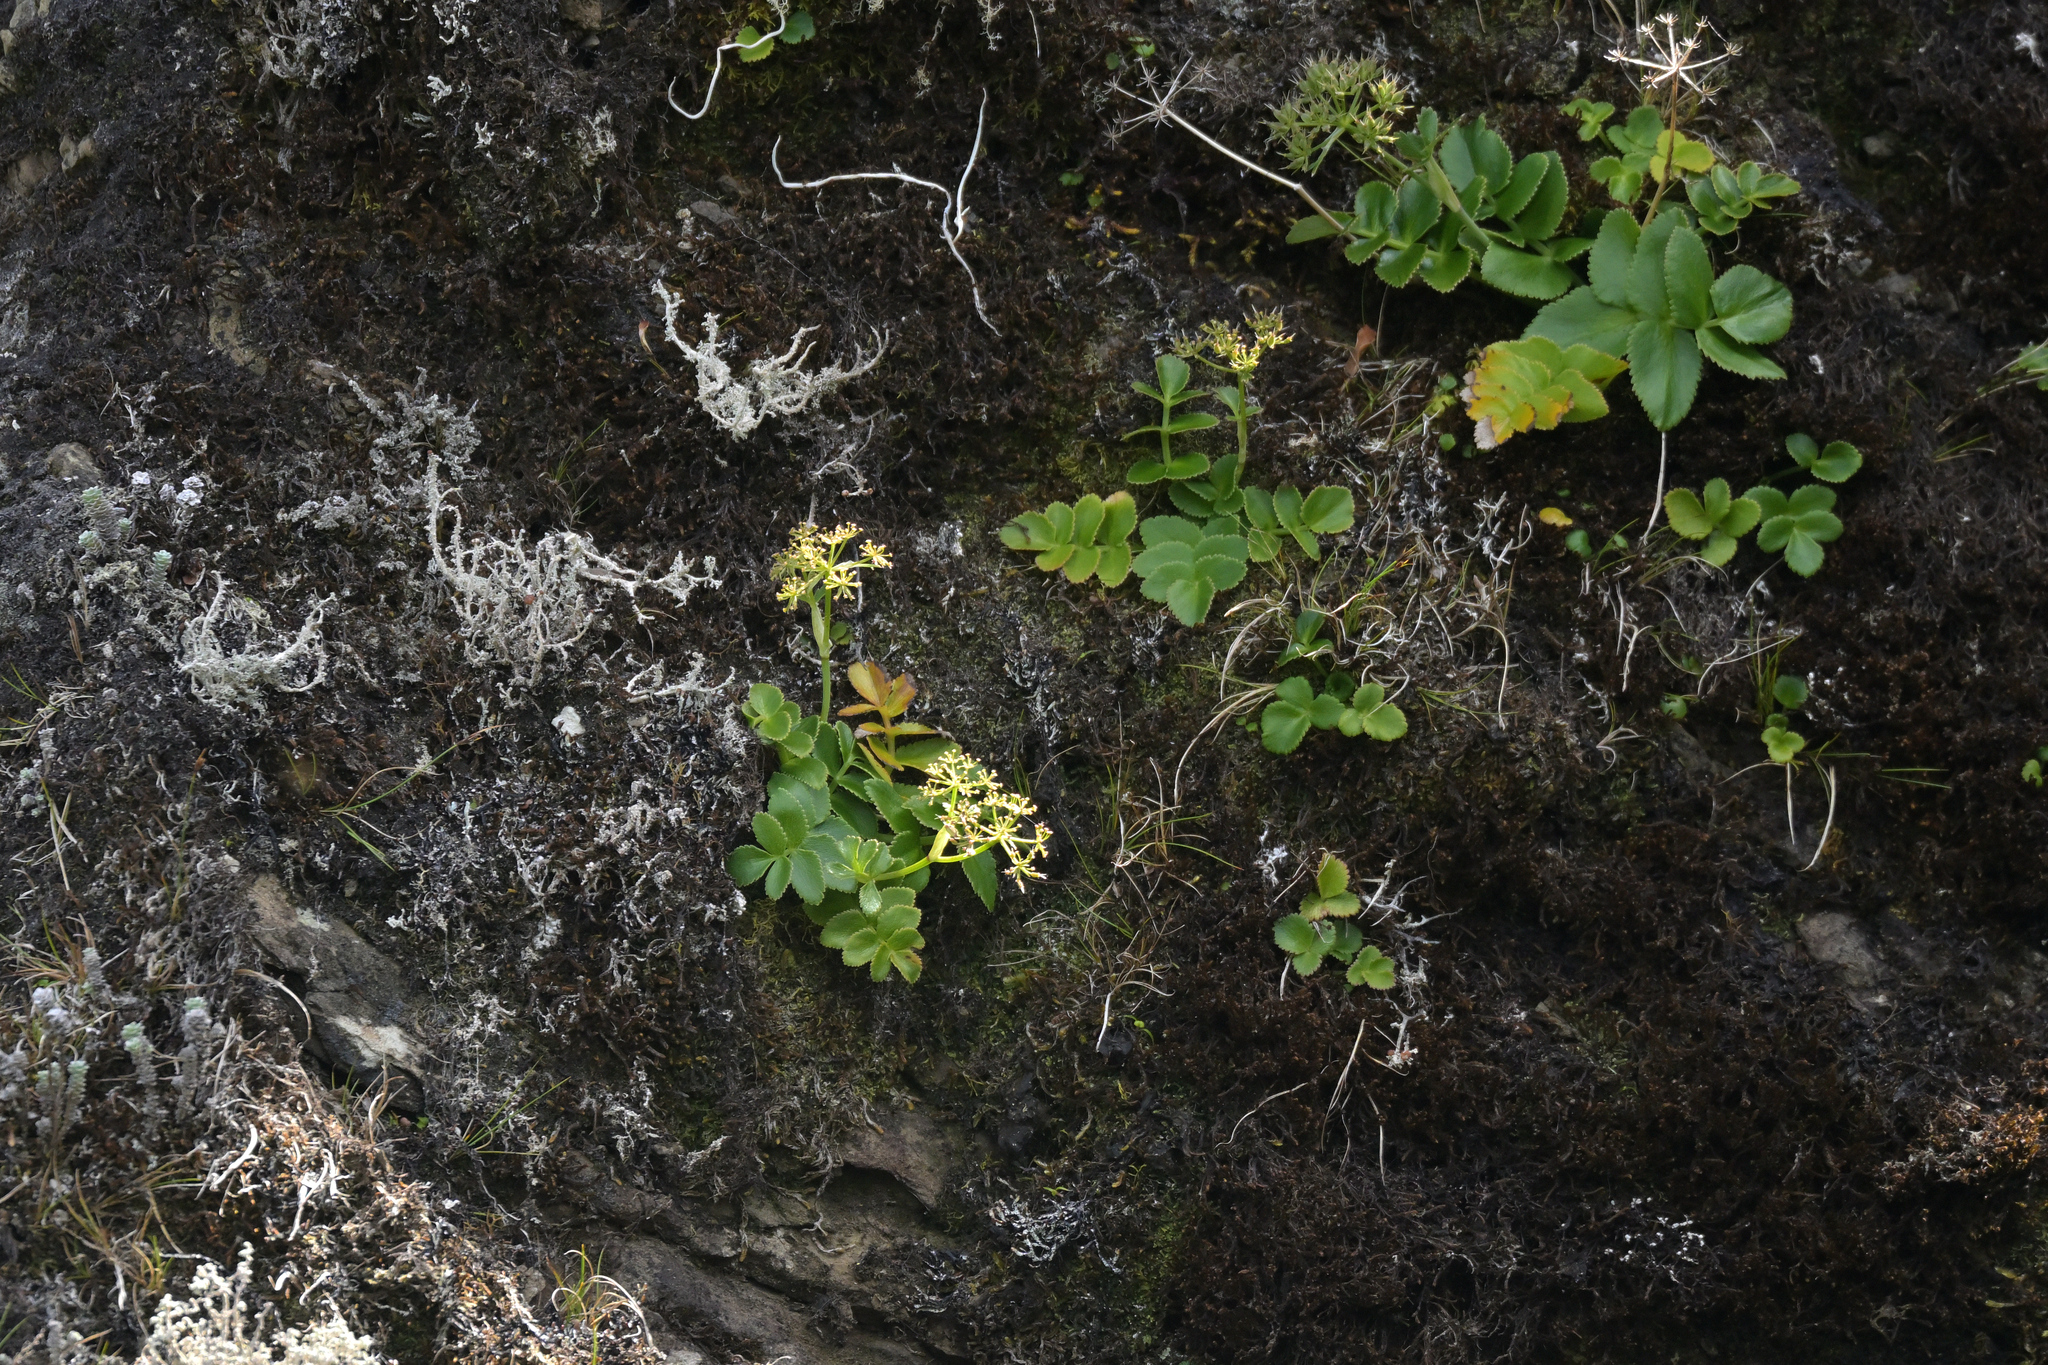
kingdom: Plantae
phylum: Tracheophyta
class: Magnoliopsida
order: Apiales
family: Apiaceae
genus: Gingidia
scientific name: Gingidia montana
